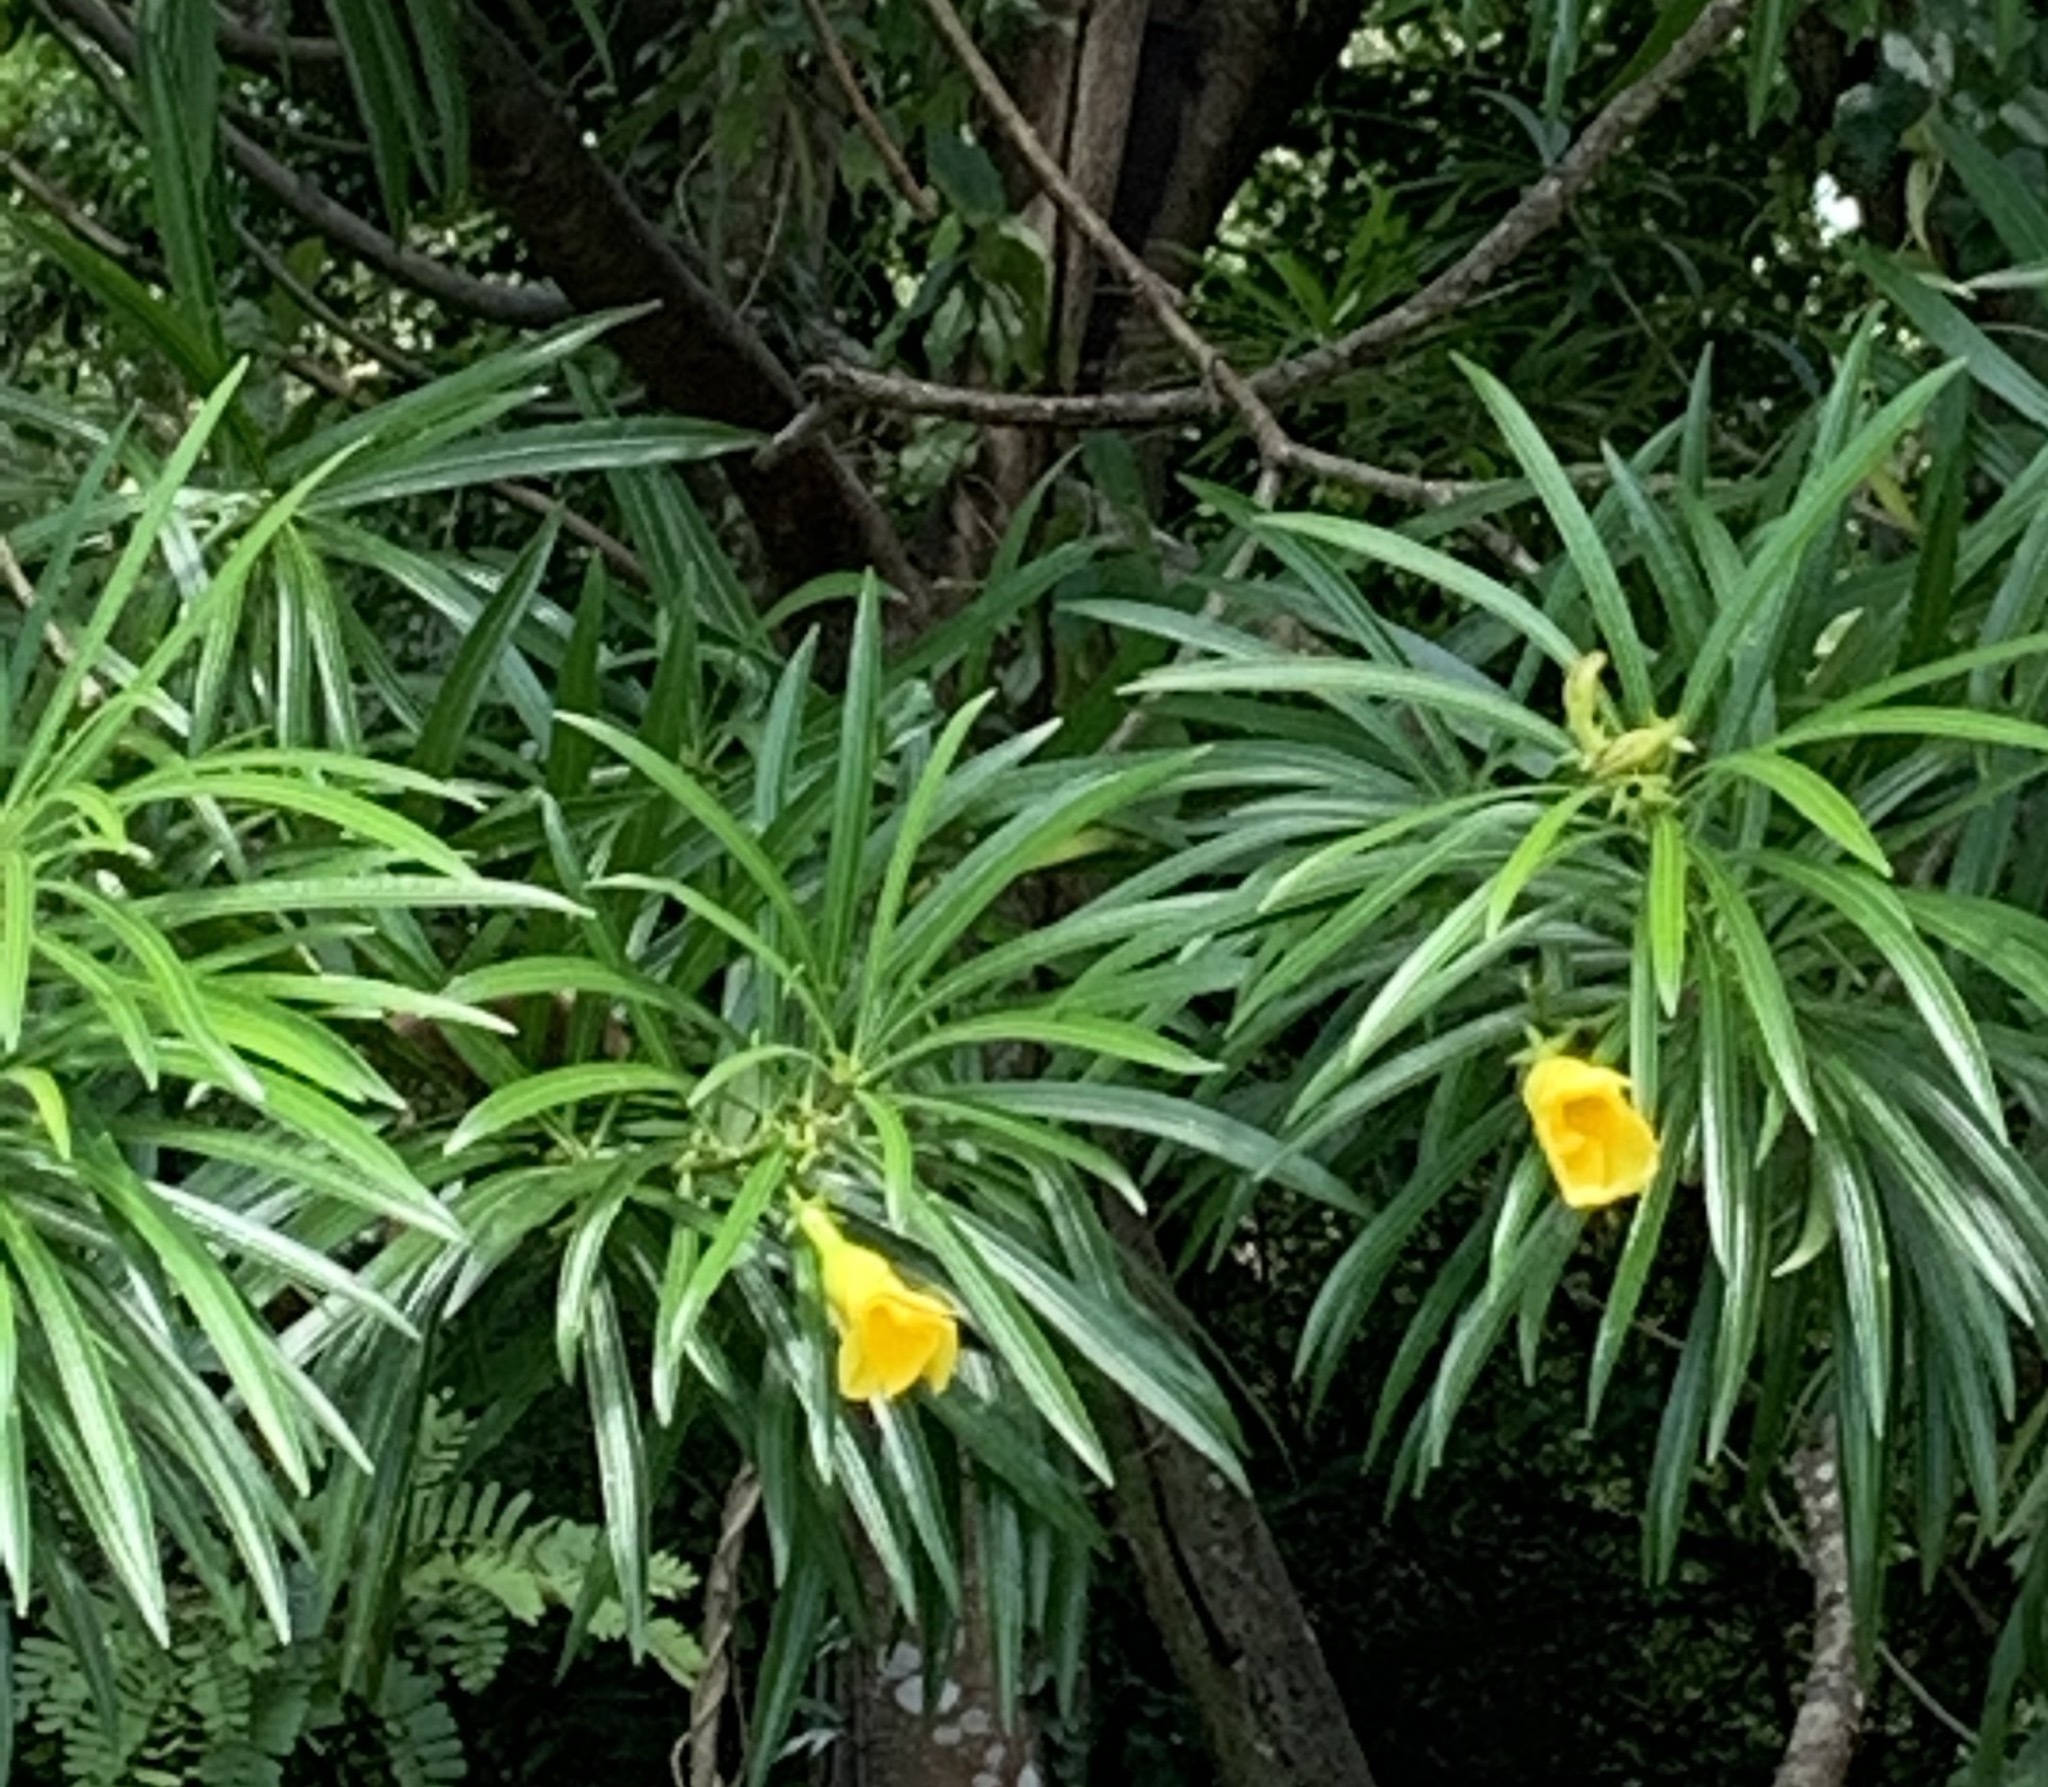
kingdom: Plantae
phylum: Tracheophyta
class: Magnoliopsida
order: Gentianales
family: Apocynaceae
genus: Cascabela
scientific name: Cascabela thevetia
